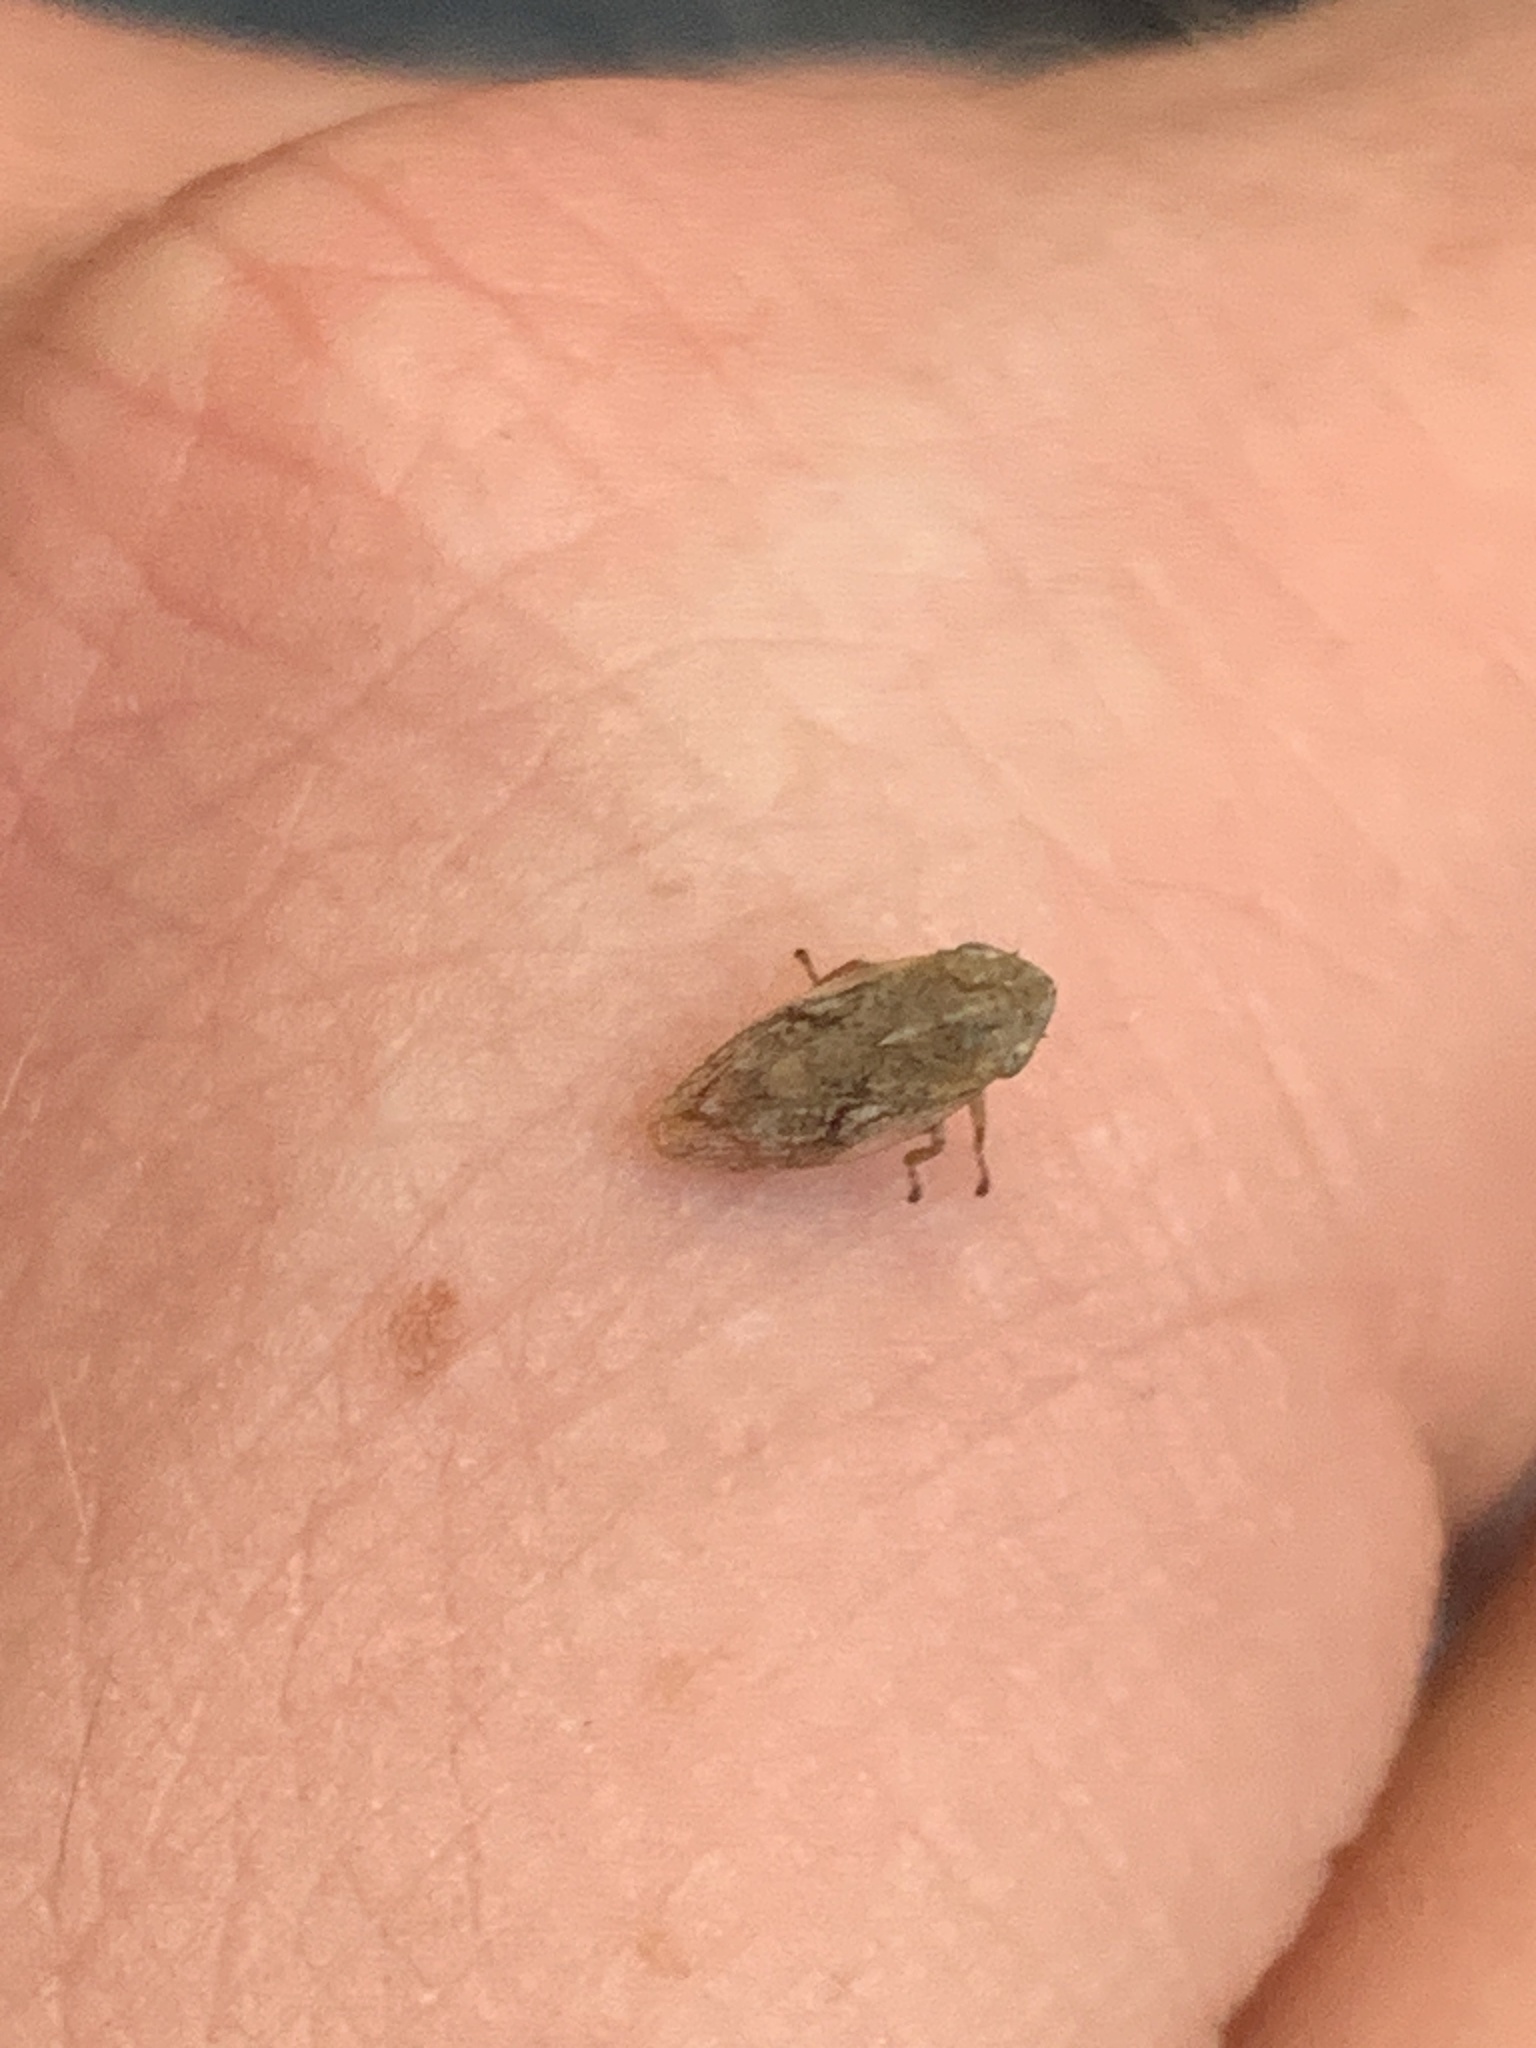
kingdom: Animalia
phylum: Arthropoda
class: Insecta
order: Hemiptera
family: Aphrophoridae
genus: Philaenus
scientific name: Philaenus spumarius
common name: Meadow spittlebug
